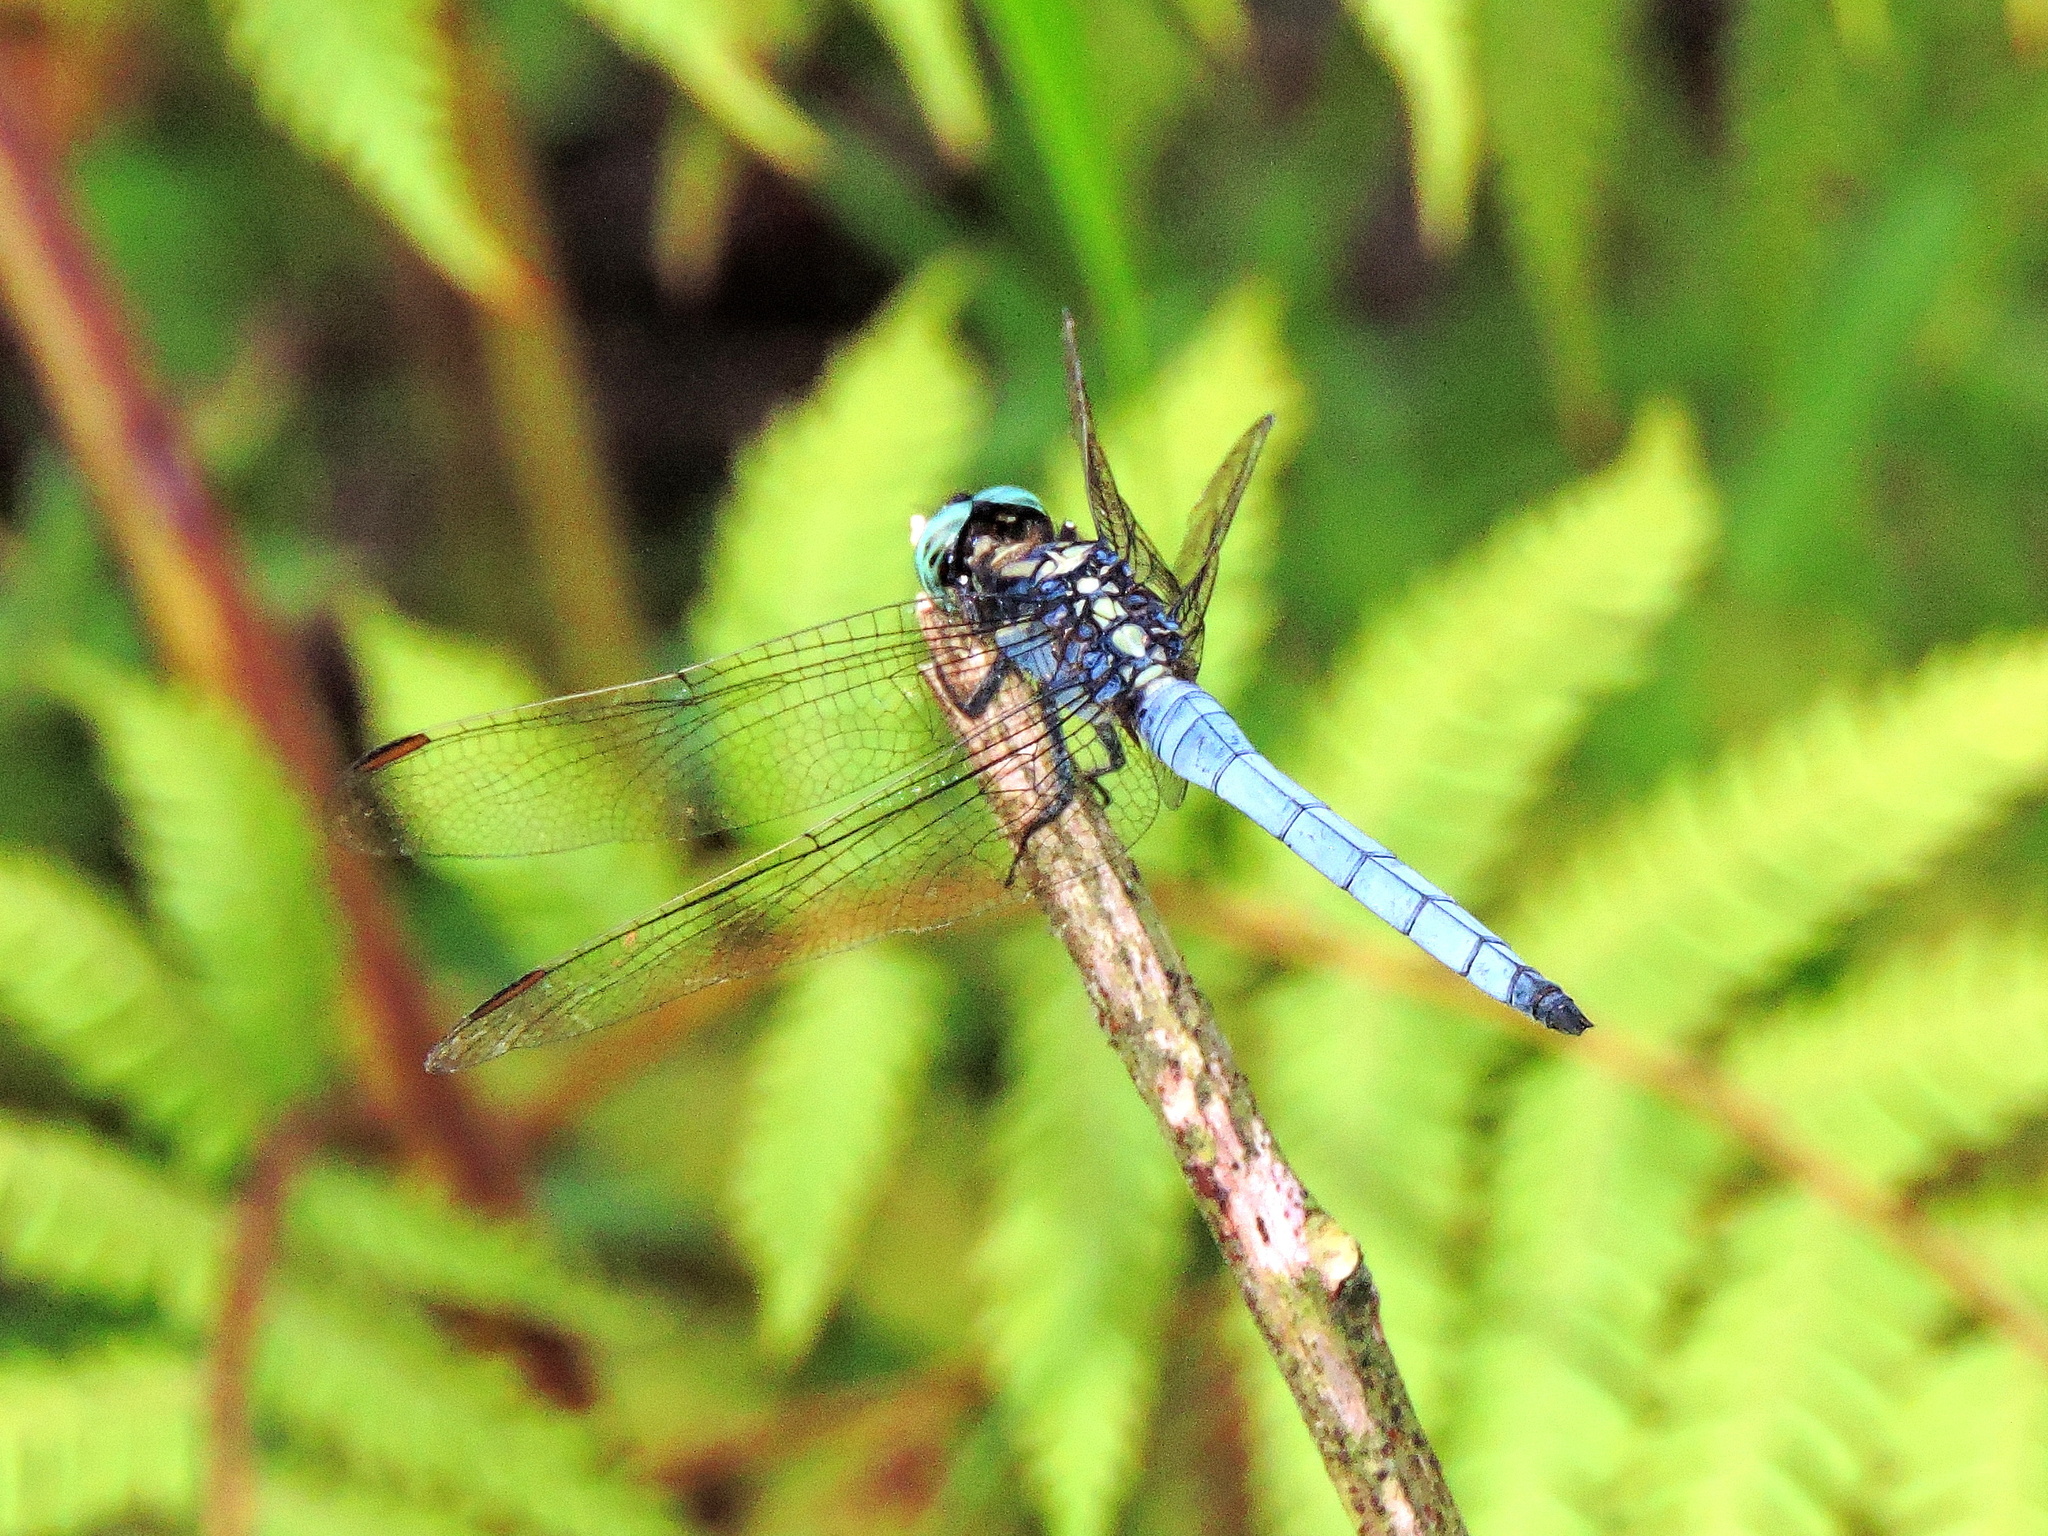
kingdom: Animalia
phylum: Arthropoda
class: Insecta
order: Odonata
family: Libellulidae
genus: Orthetrum
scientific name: Orthetrum luzonicum
